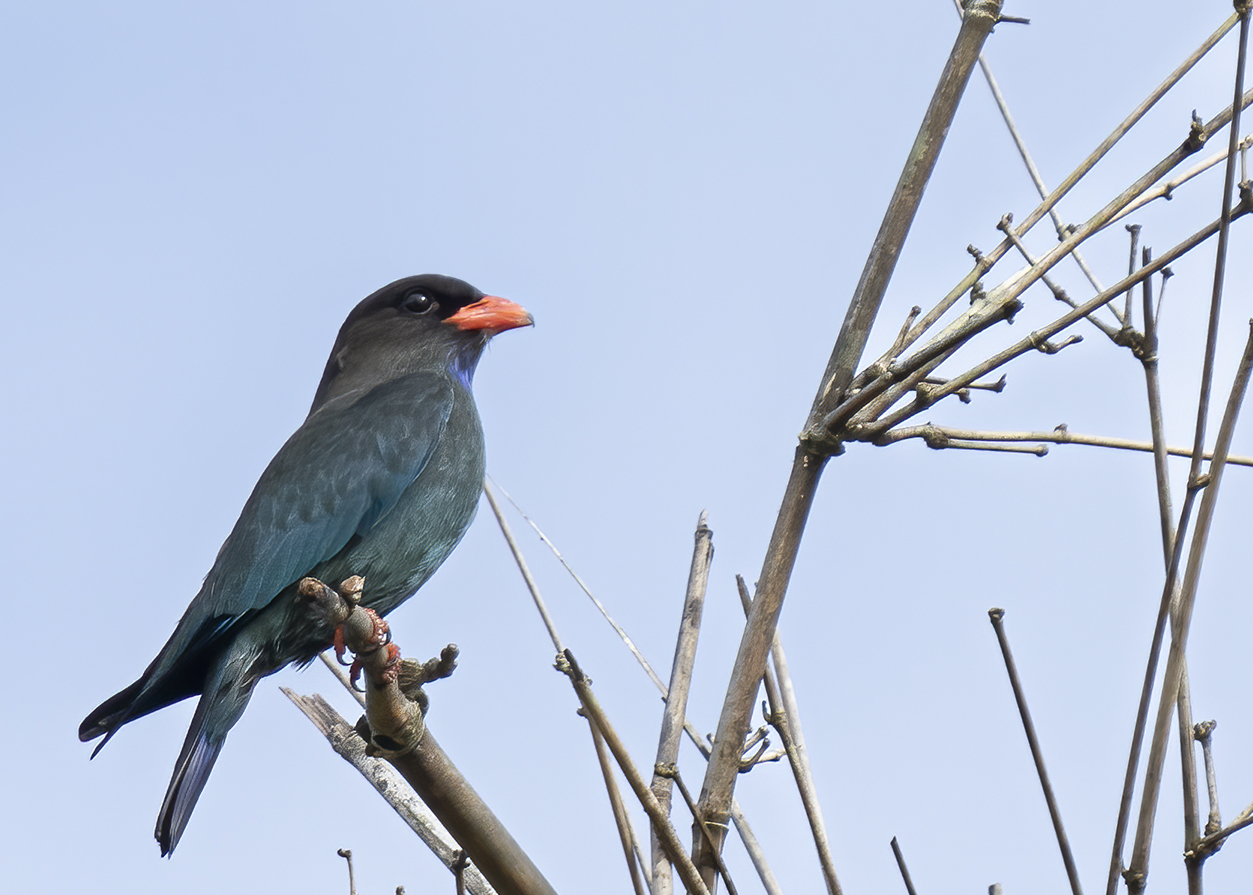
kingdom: Animalia
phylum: Chordata
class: Aves
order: Coraciiformes
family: Coraciidae
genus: Eurystomus
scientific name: Eurystomus orientalis
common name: Oriental dollarbird
